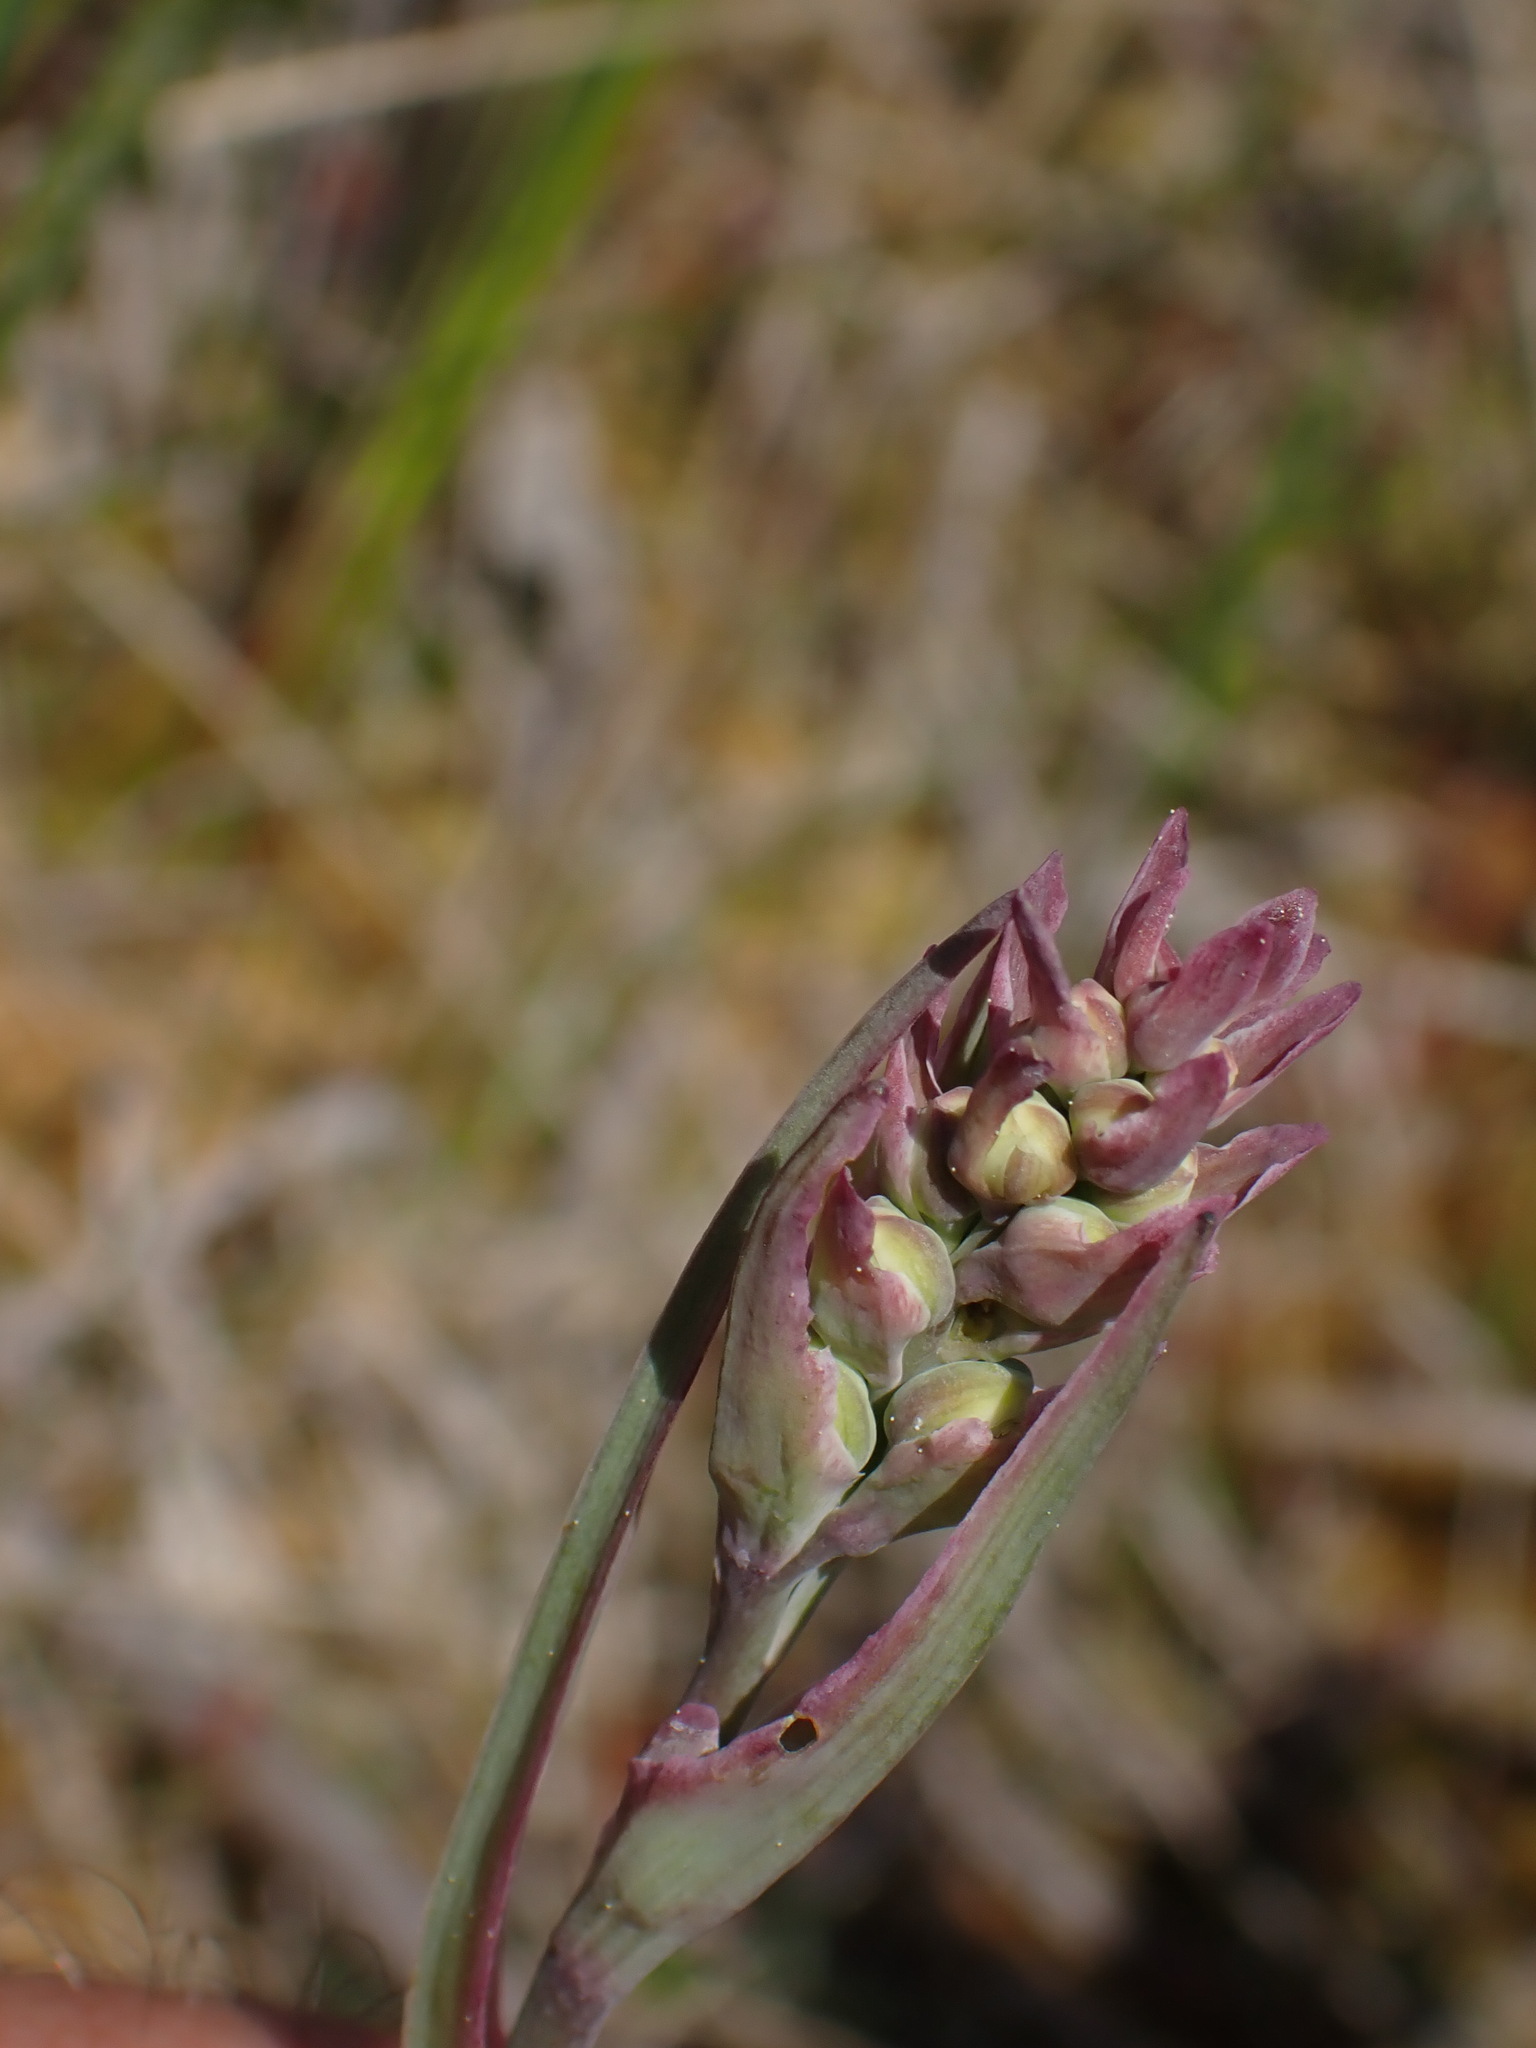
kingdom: Plantae
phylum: Tracheophyta
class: Liliopsida
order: Liliales
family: Melanthiaceae
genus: Anticlea
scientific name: Anticlea elegans
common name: Mountain death camas
